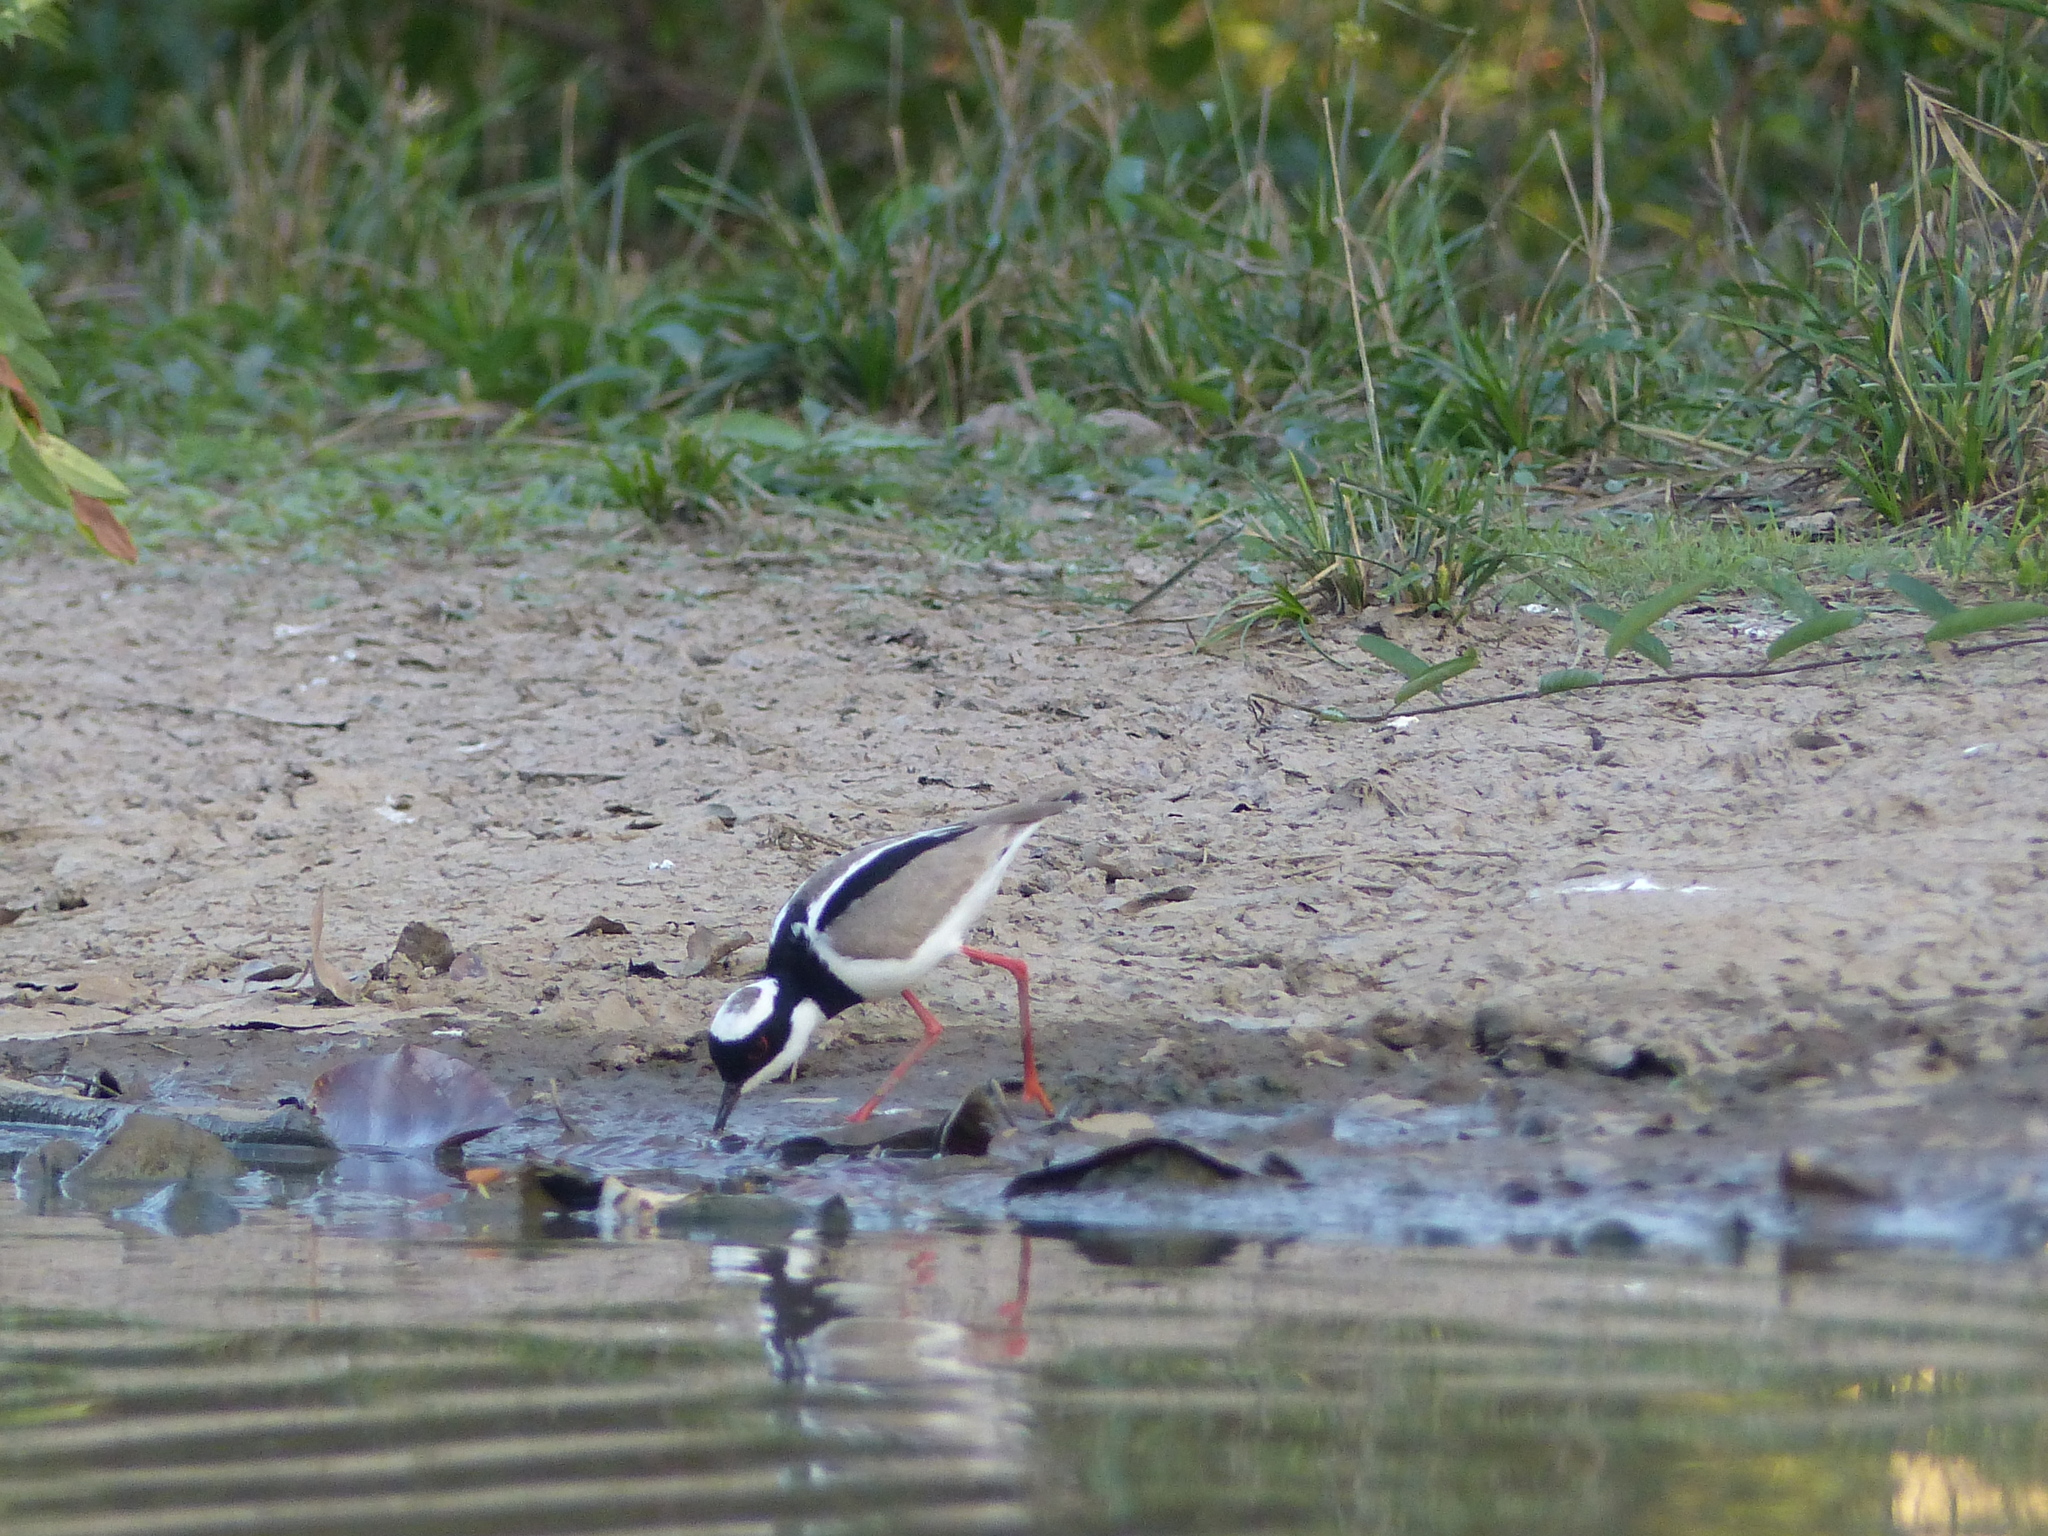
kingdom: Animalia
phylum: Chordata
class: Aves
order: Charadriiformes
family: Charadriidae
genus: Hoploxypterus
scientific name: Hoploxypterus cayanus
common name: Pied plover
